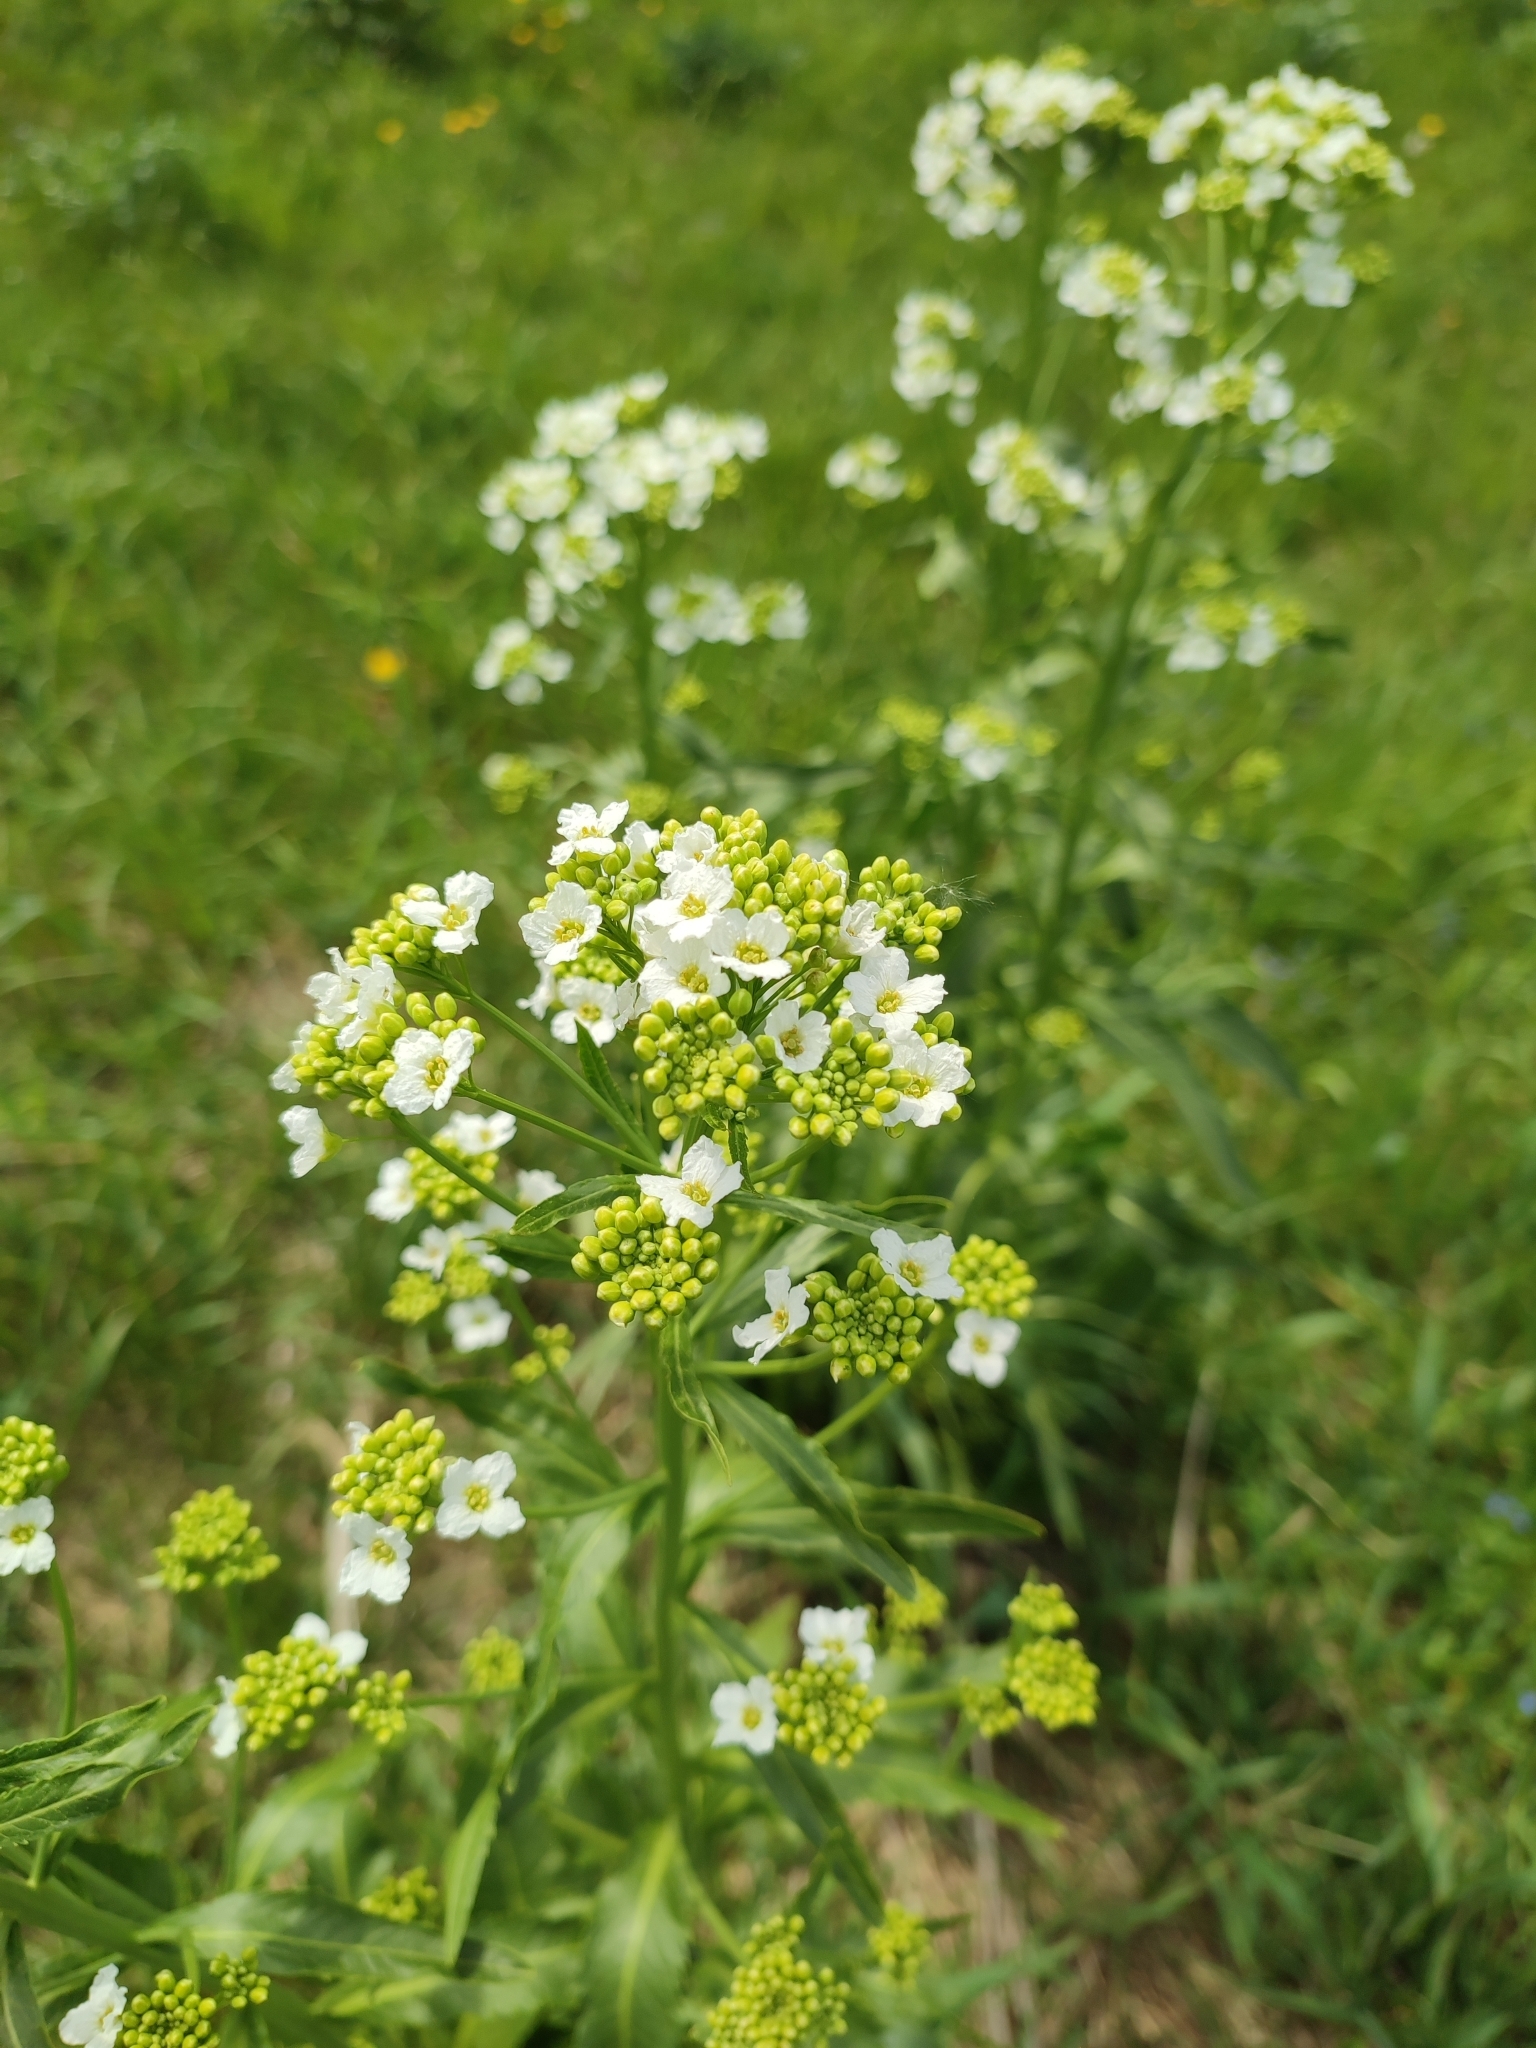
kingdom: Plantae
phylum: Tracheophyta
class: Magnoliopsida
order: Brassicales
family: Brassicaceae
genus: Armoracia
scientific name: Armoracia rusticana
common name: Horseradish
